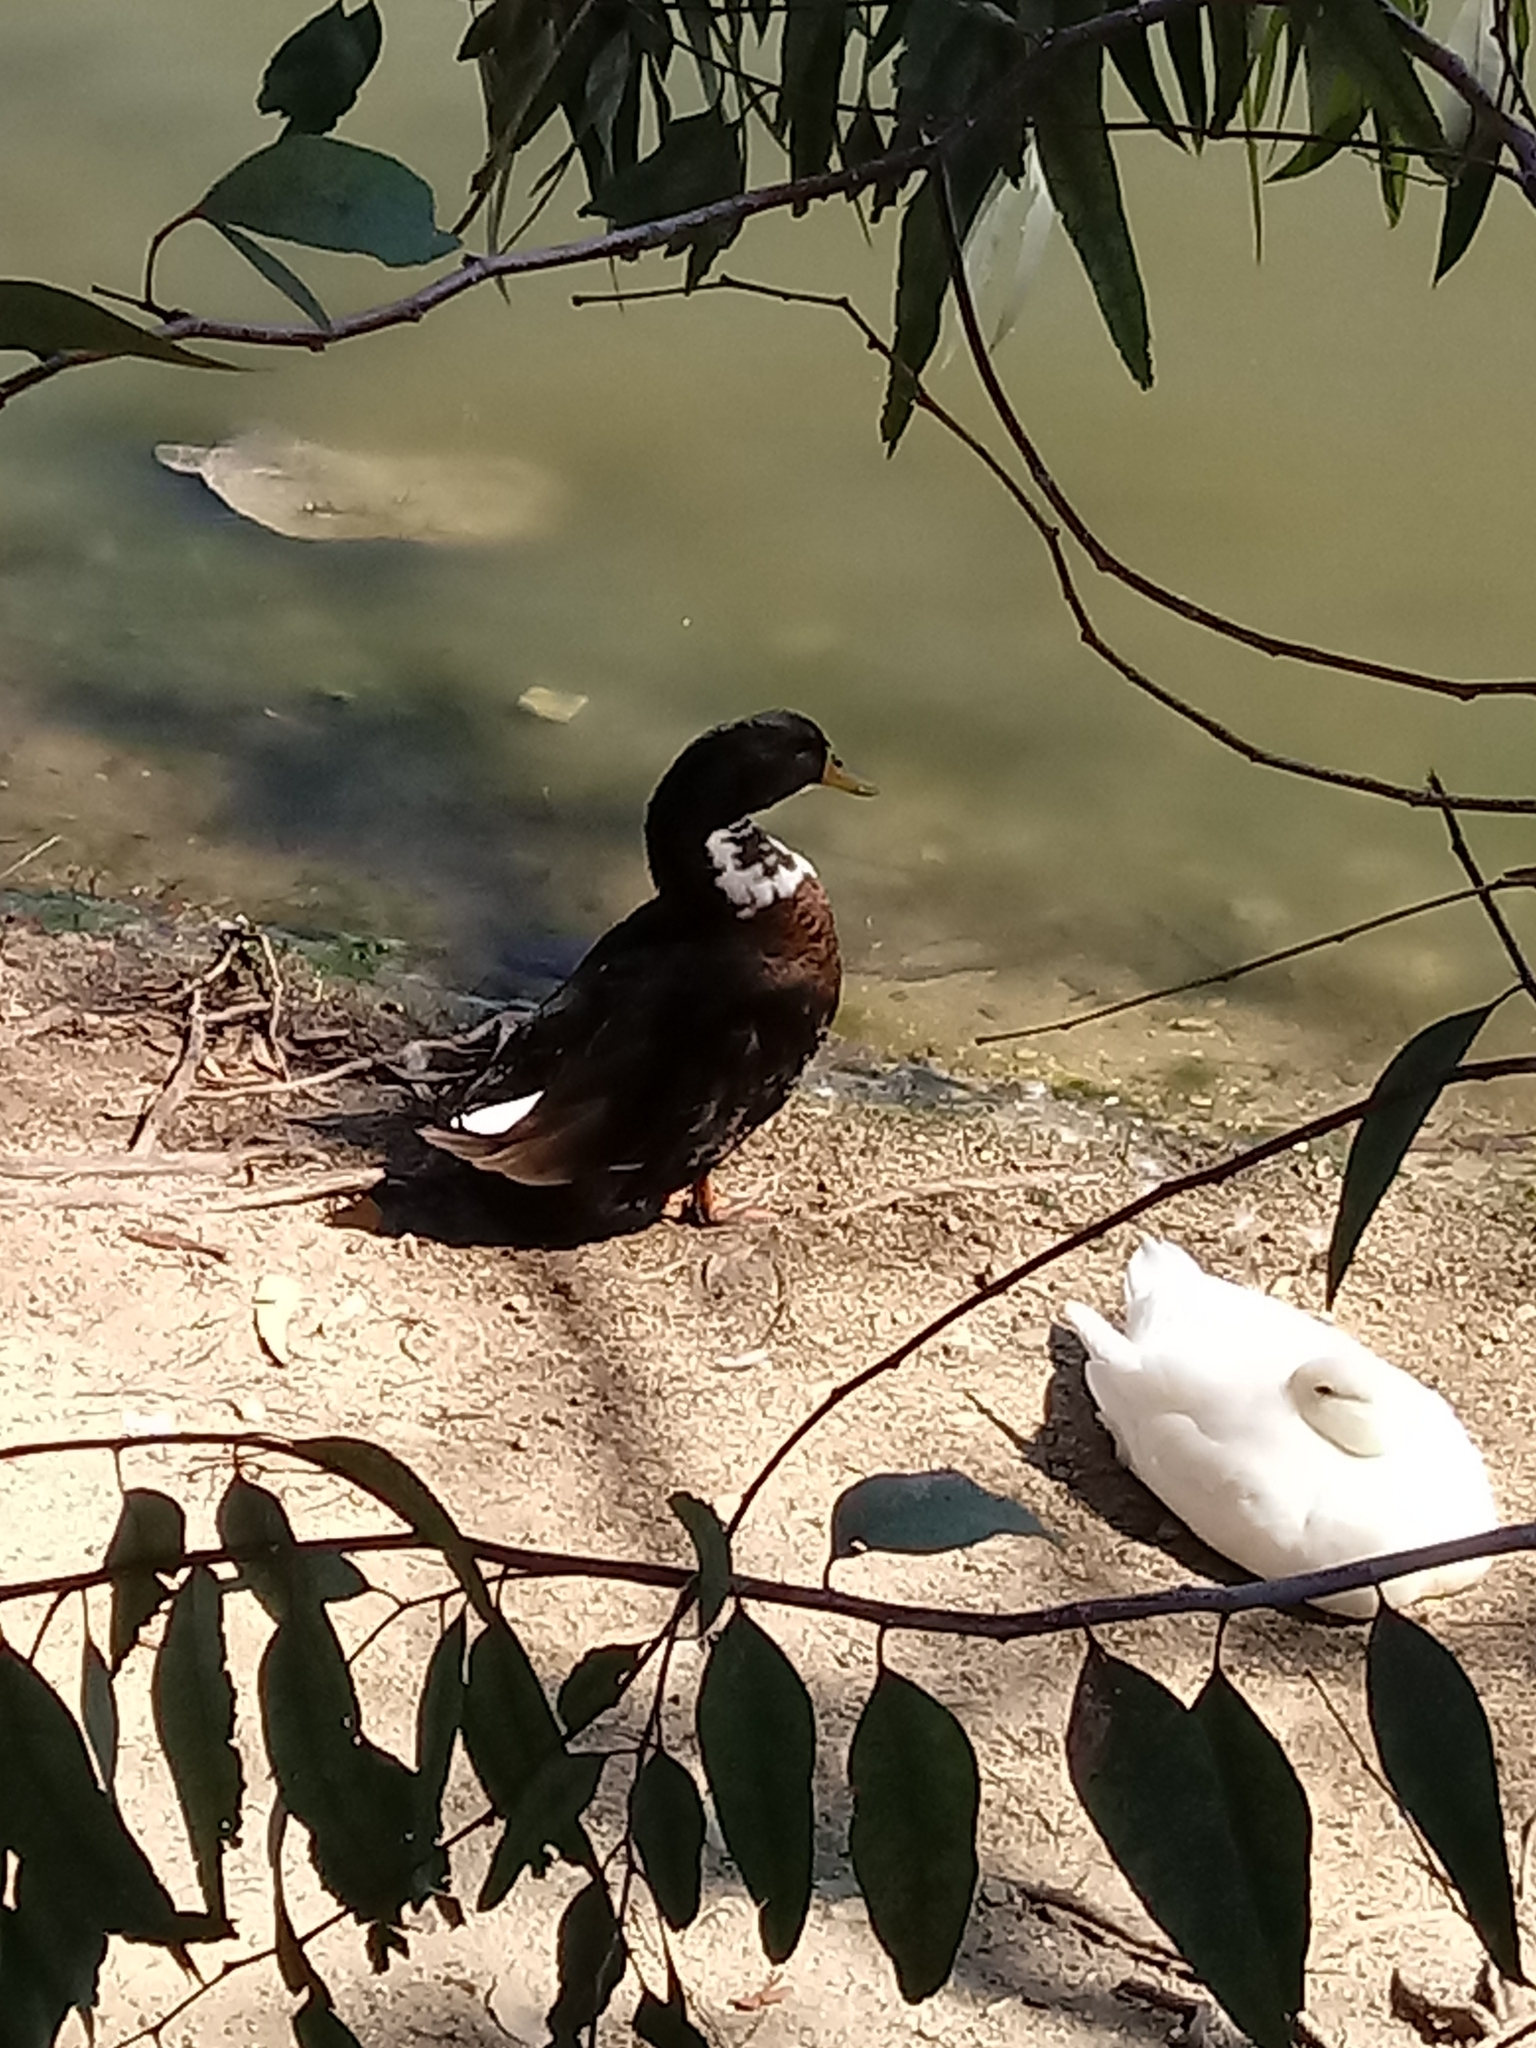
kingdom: Animalia
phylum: Chordata
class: Aves
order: Anseriformes
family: Anatidae
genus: Anas
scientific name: Anas platyrhynchos
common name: Mallard
